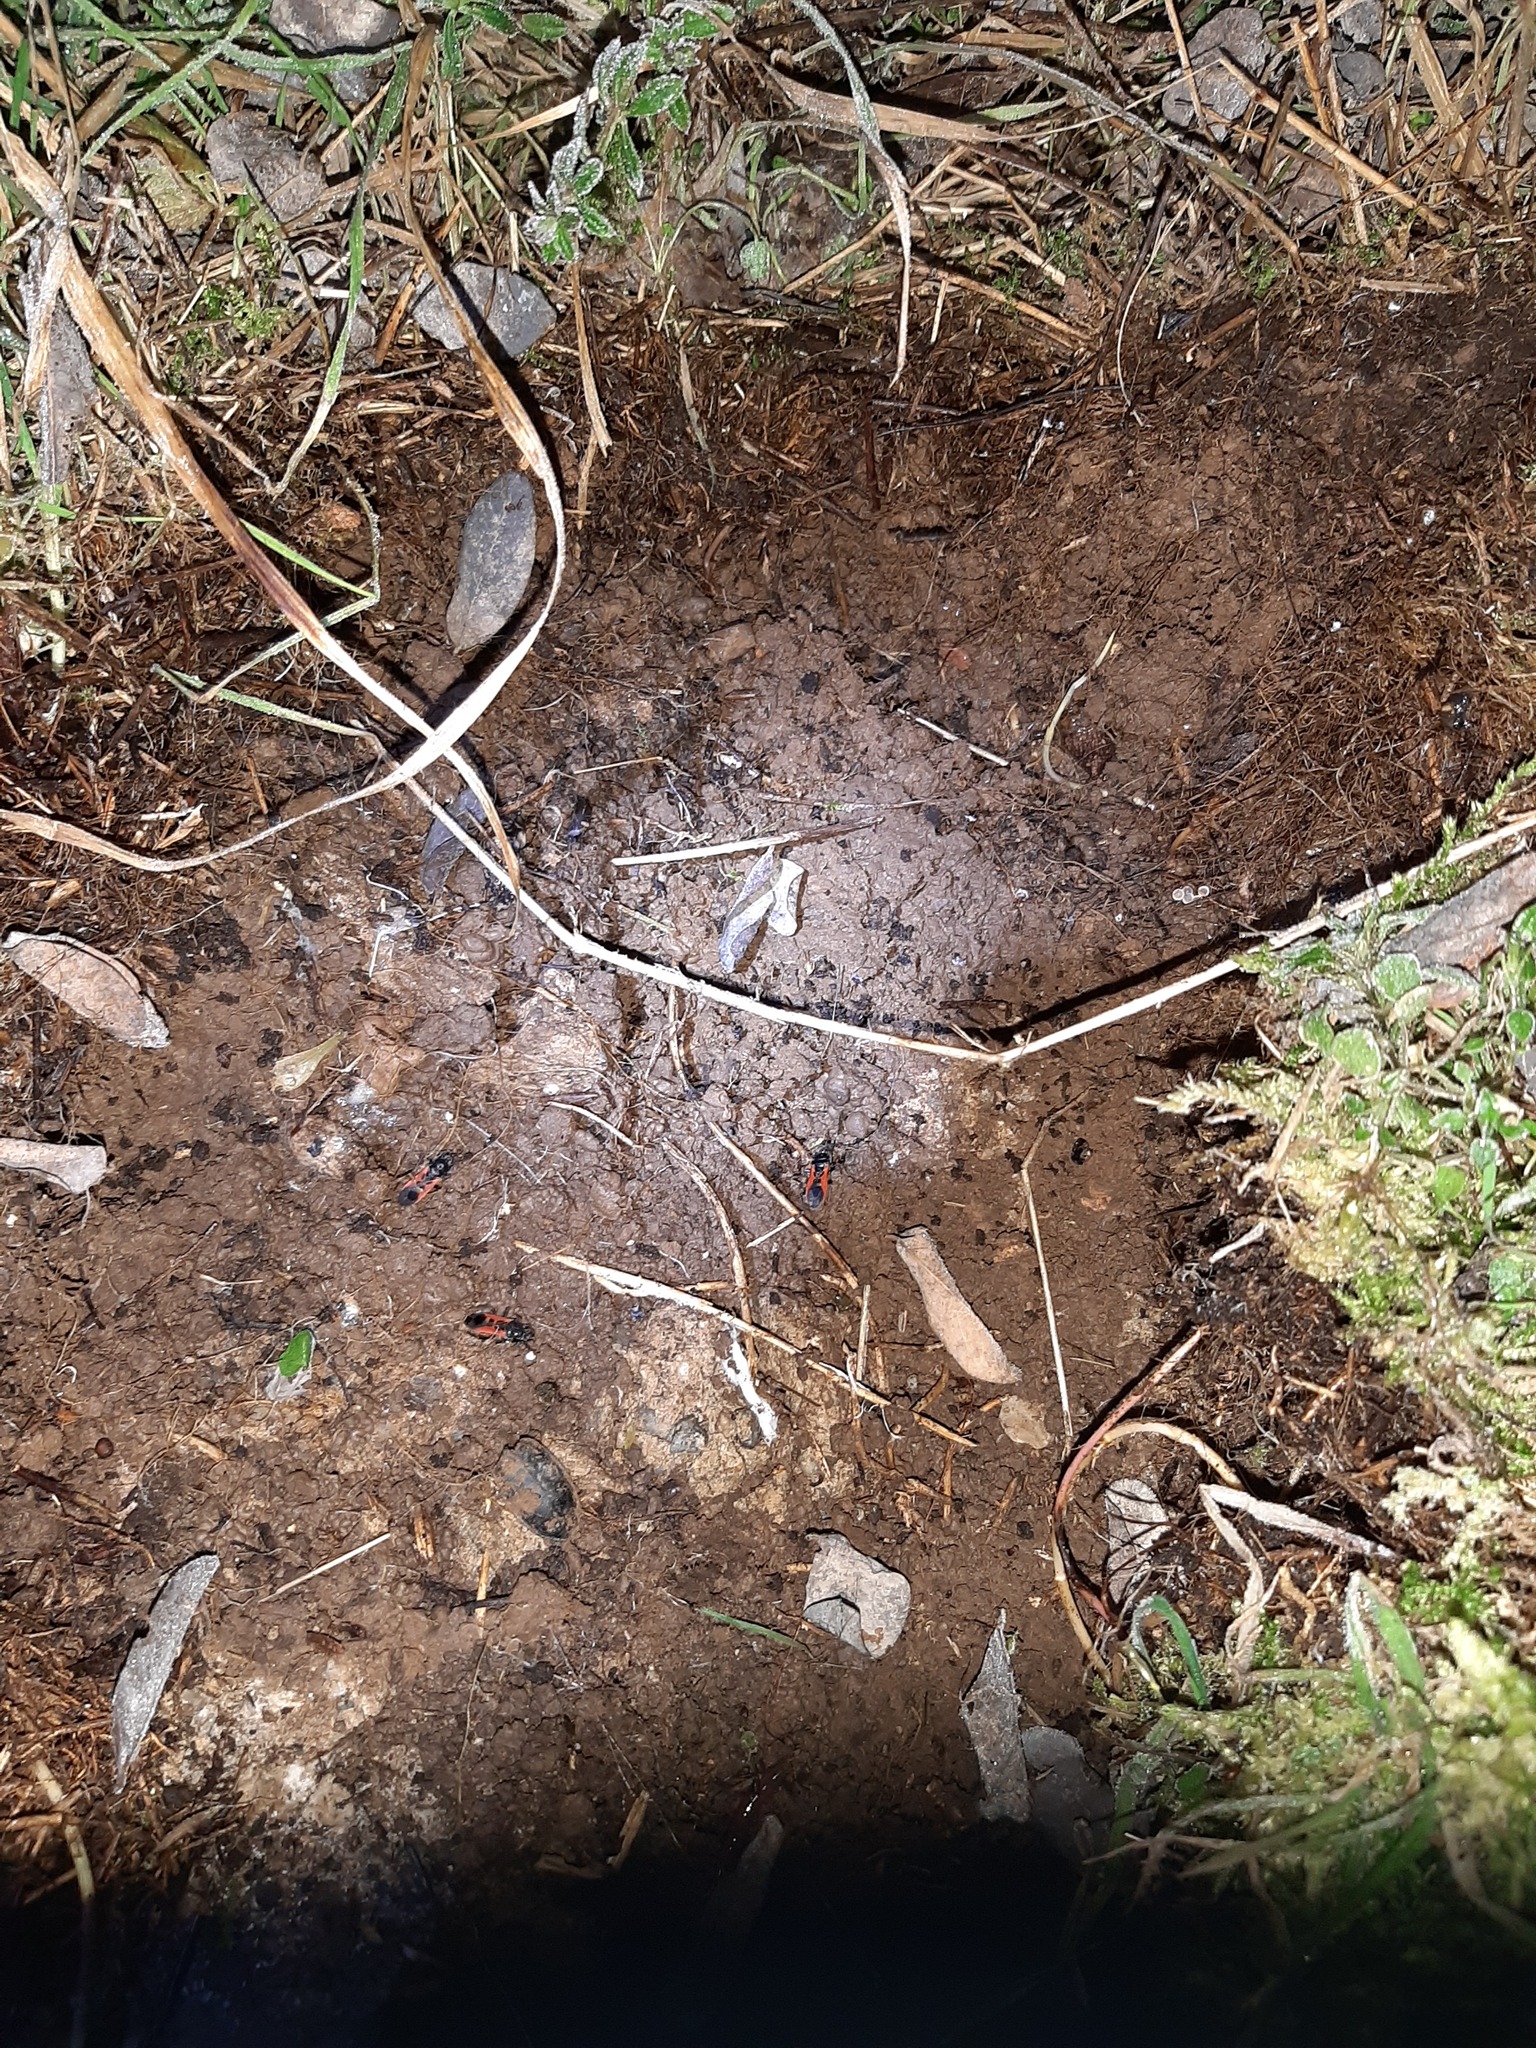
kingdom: Animalia
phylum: Arthropoda
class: Insecta
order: Hemiptera
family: Reduviidae
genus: Peirates
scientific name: Peirates hybridus
